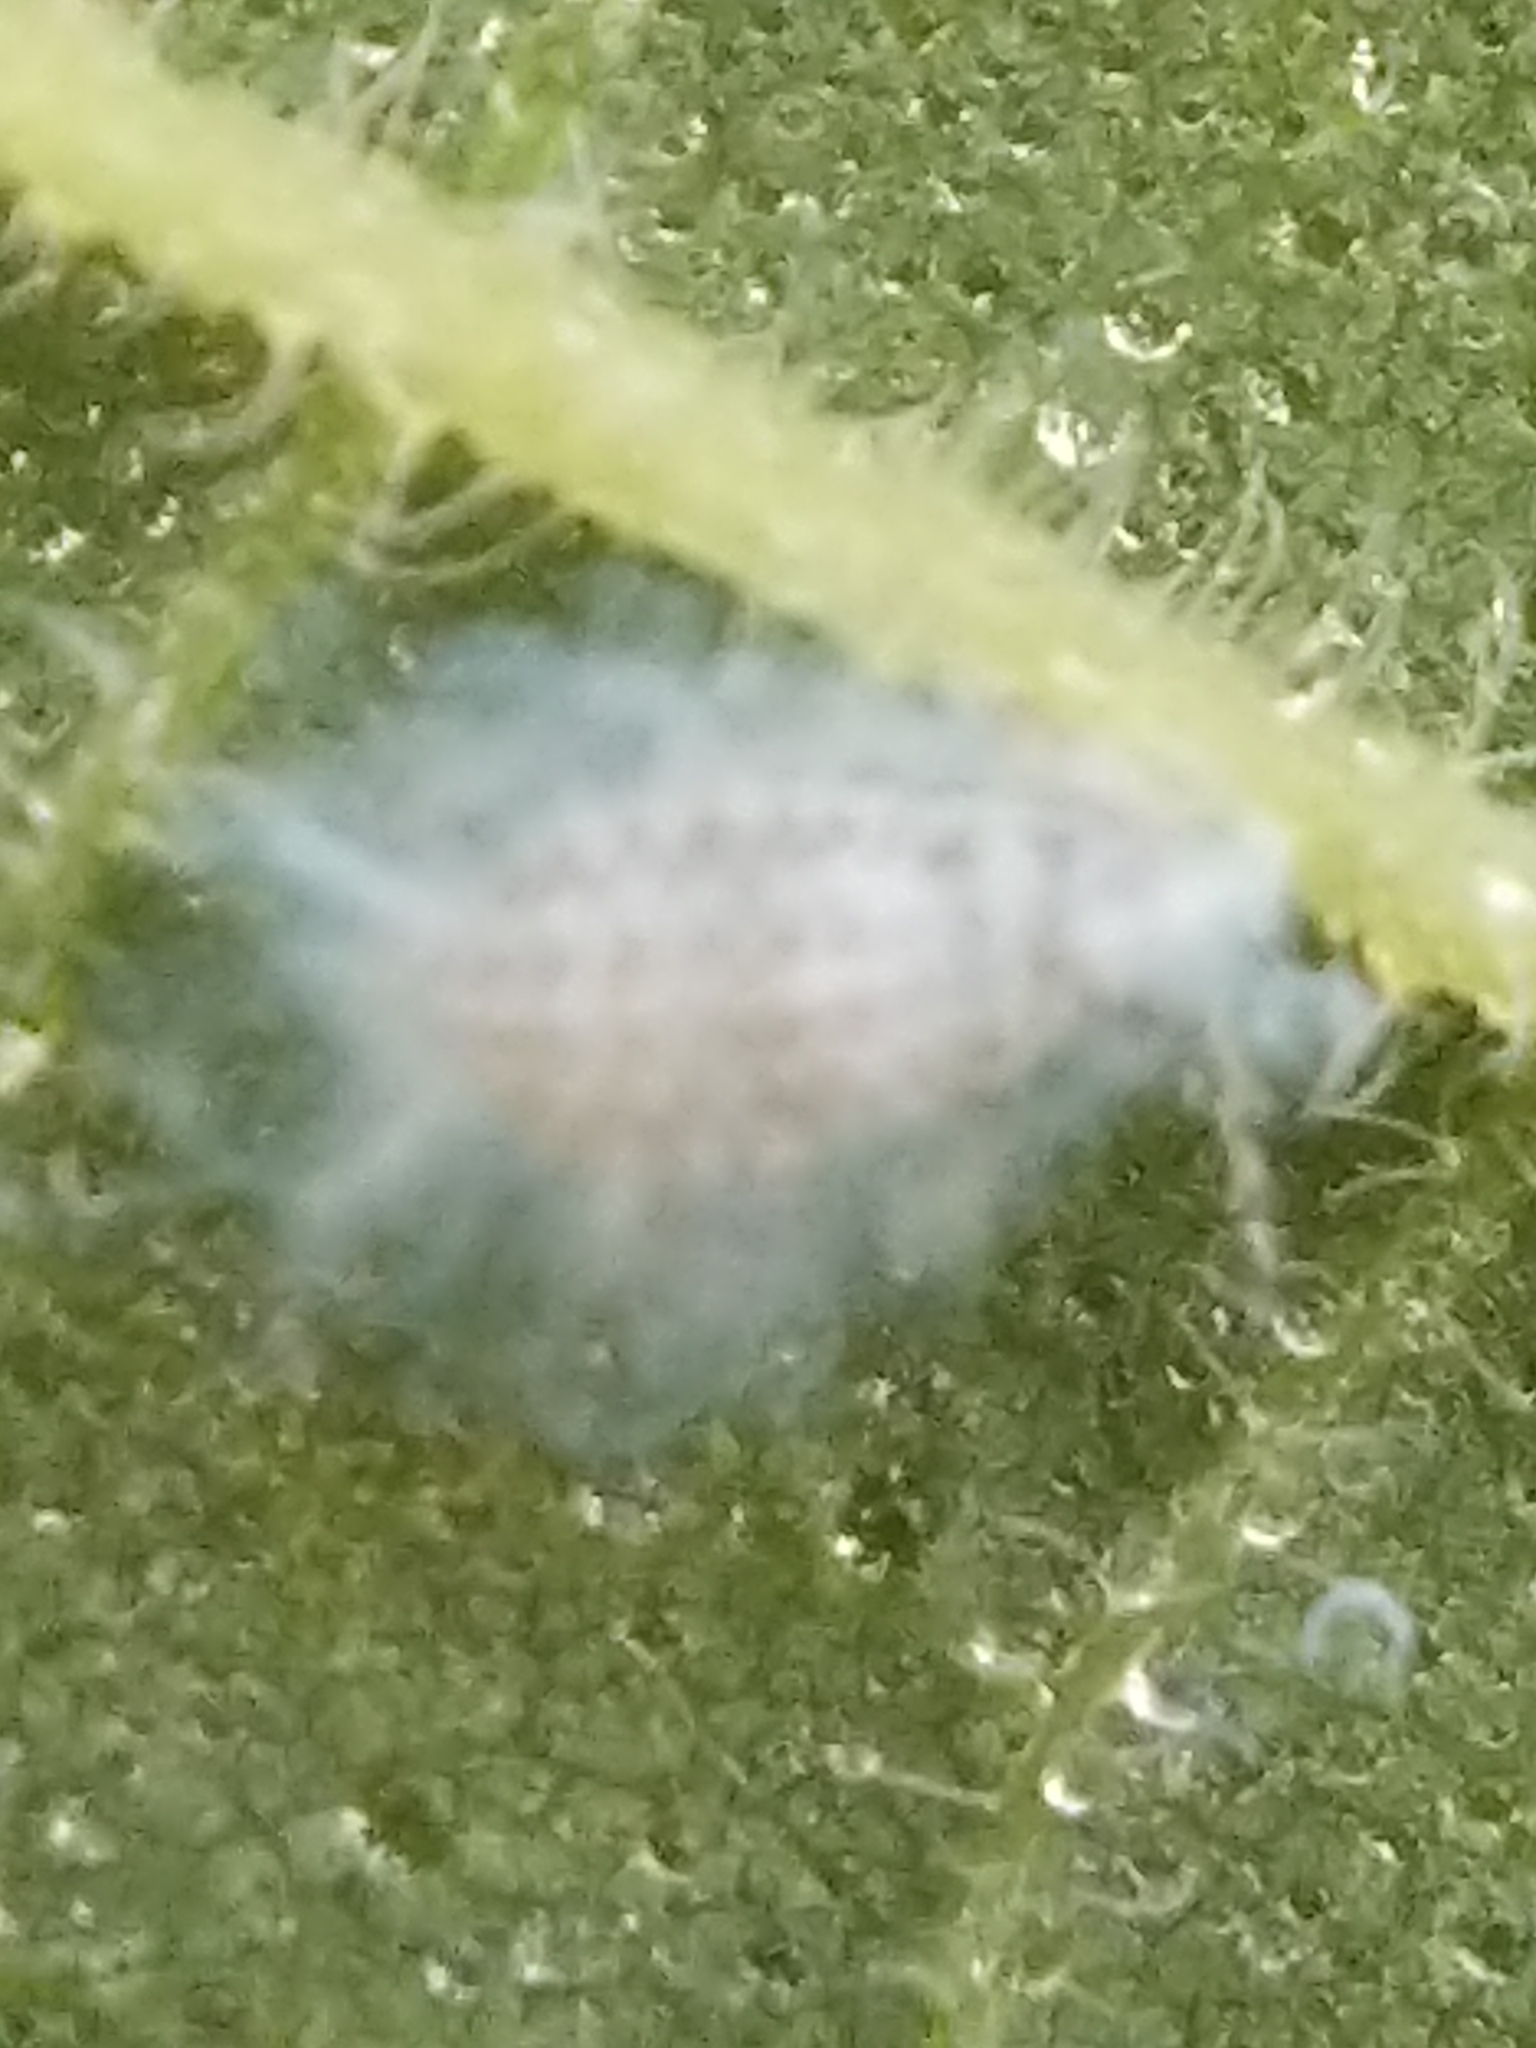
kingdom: Animalia
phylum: Arthropoda
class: Insecta
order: Hemiptera
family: Aphididae
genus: Shivaphis
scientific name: Shivaphis celti
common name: Asian wooly hackberry aphid
